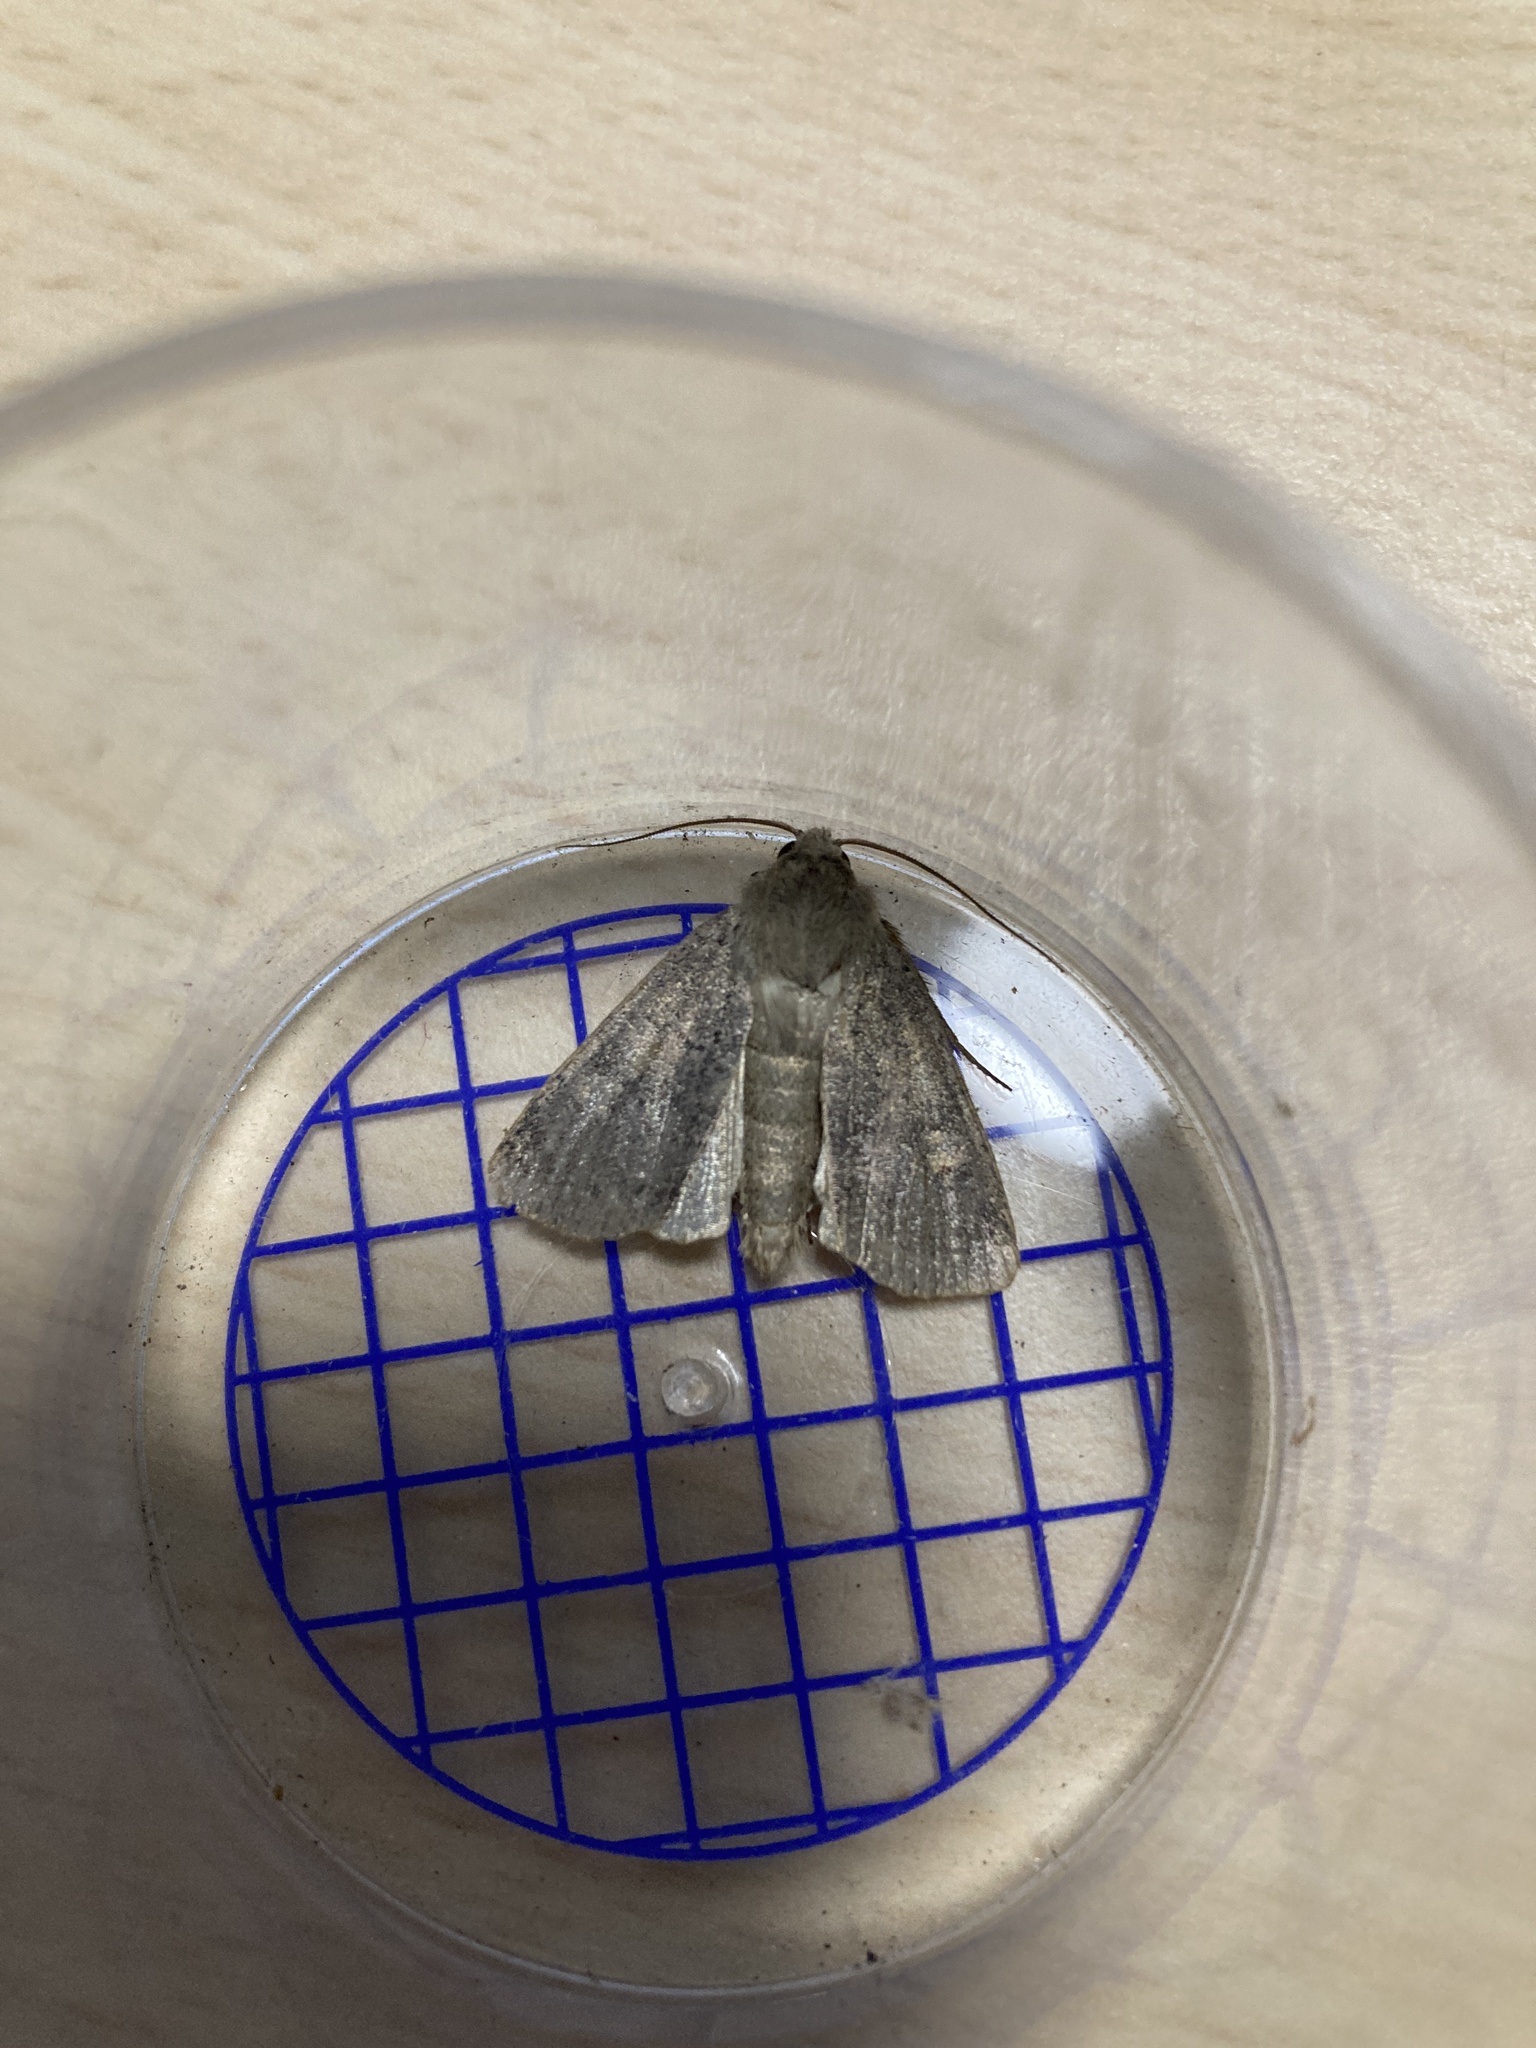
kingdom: Animalia
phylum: Arthropoda
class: Insecta
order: Lepidoptera
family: Noctuidae
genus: Xestia
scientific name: Xestia xanthographa
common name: Square-spot rustic
